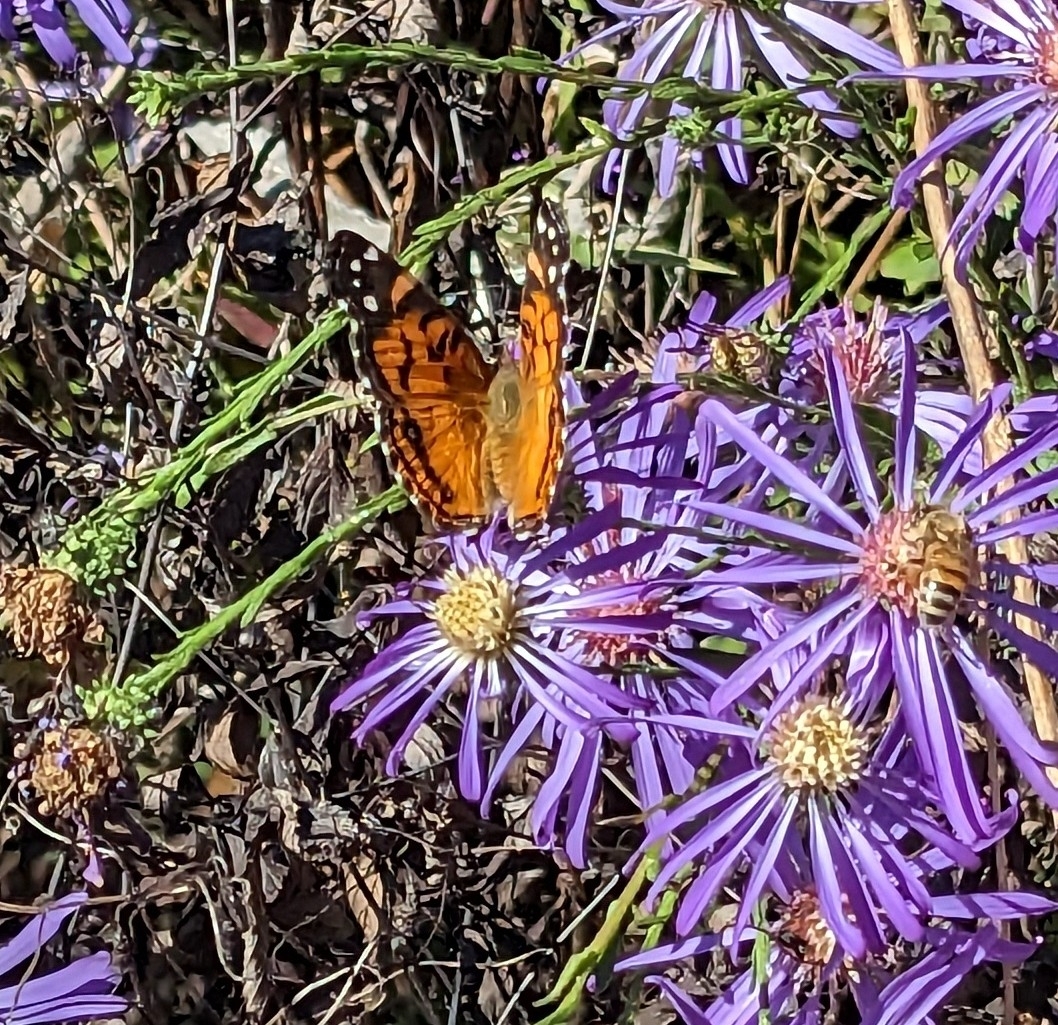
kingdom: Animalia
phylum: Arthropoda
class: Insecta
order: Lepidoptera
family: Nymphalidae
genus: Vanessa
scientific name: Vanessa virginiensis
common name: American lady
